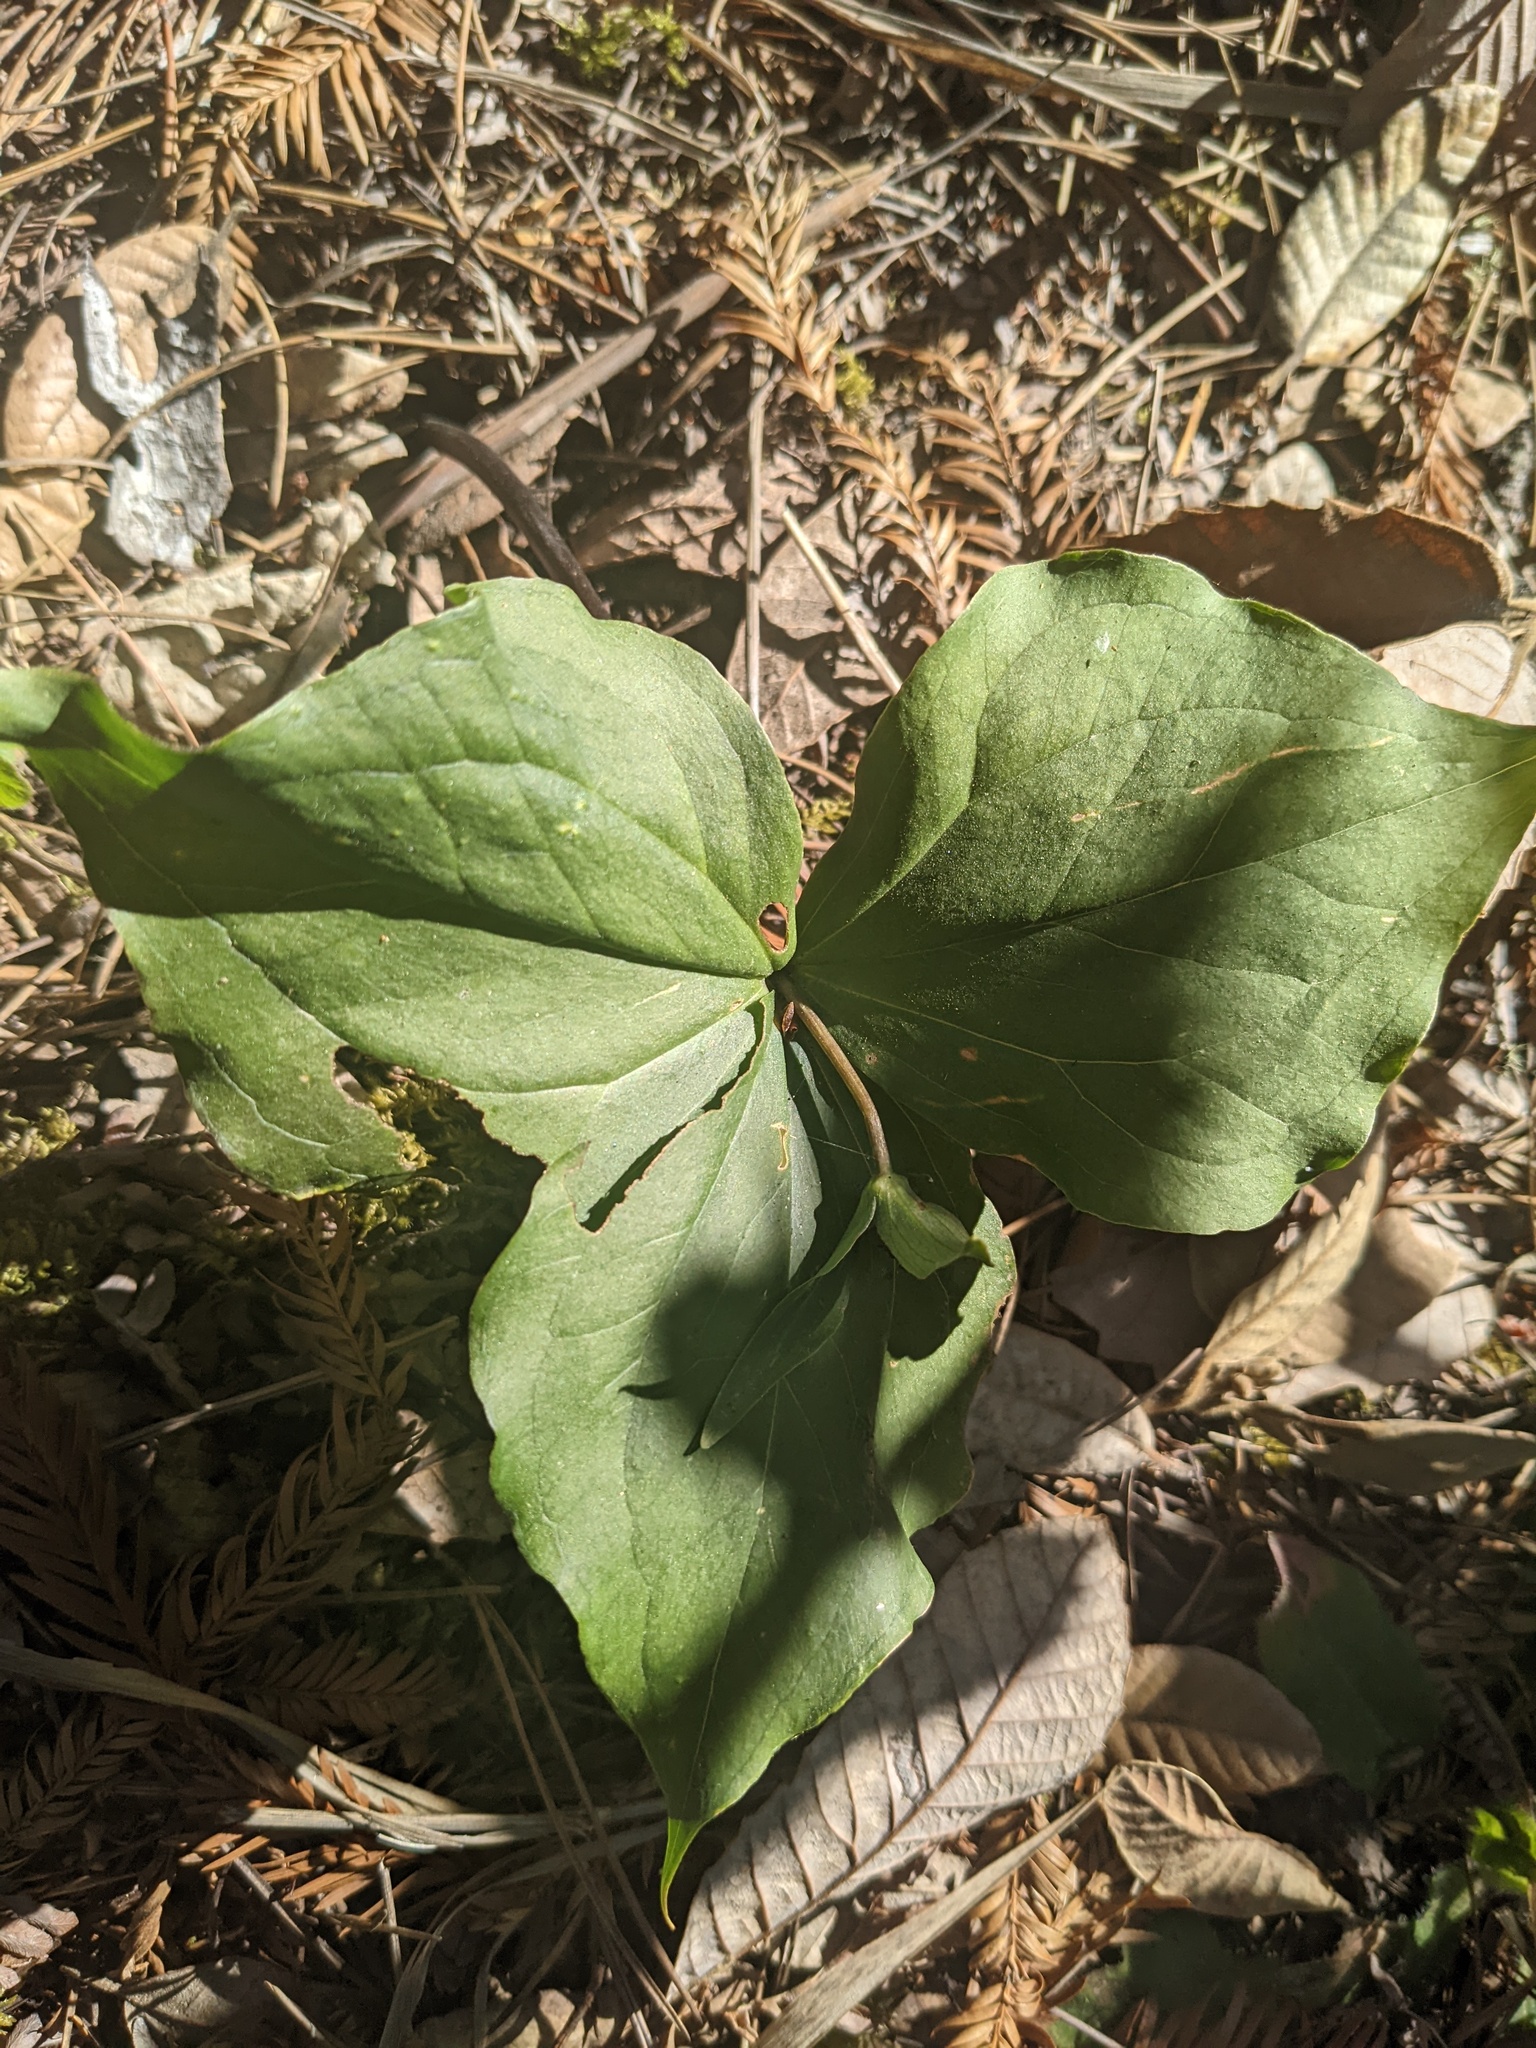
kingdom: Plantae
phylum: Tracheophyta
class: Liliopsida
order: Liliales
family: Melanthiaceae
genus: Trillium
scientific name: Trillium ovatum
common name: Pacific trillium
